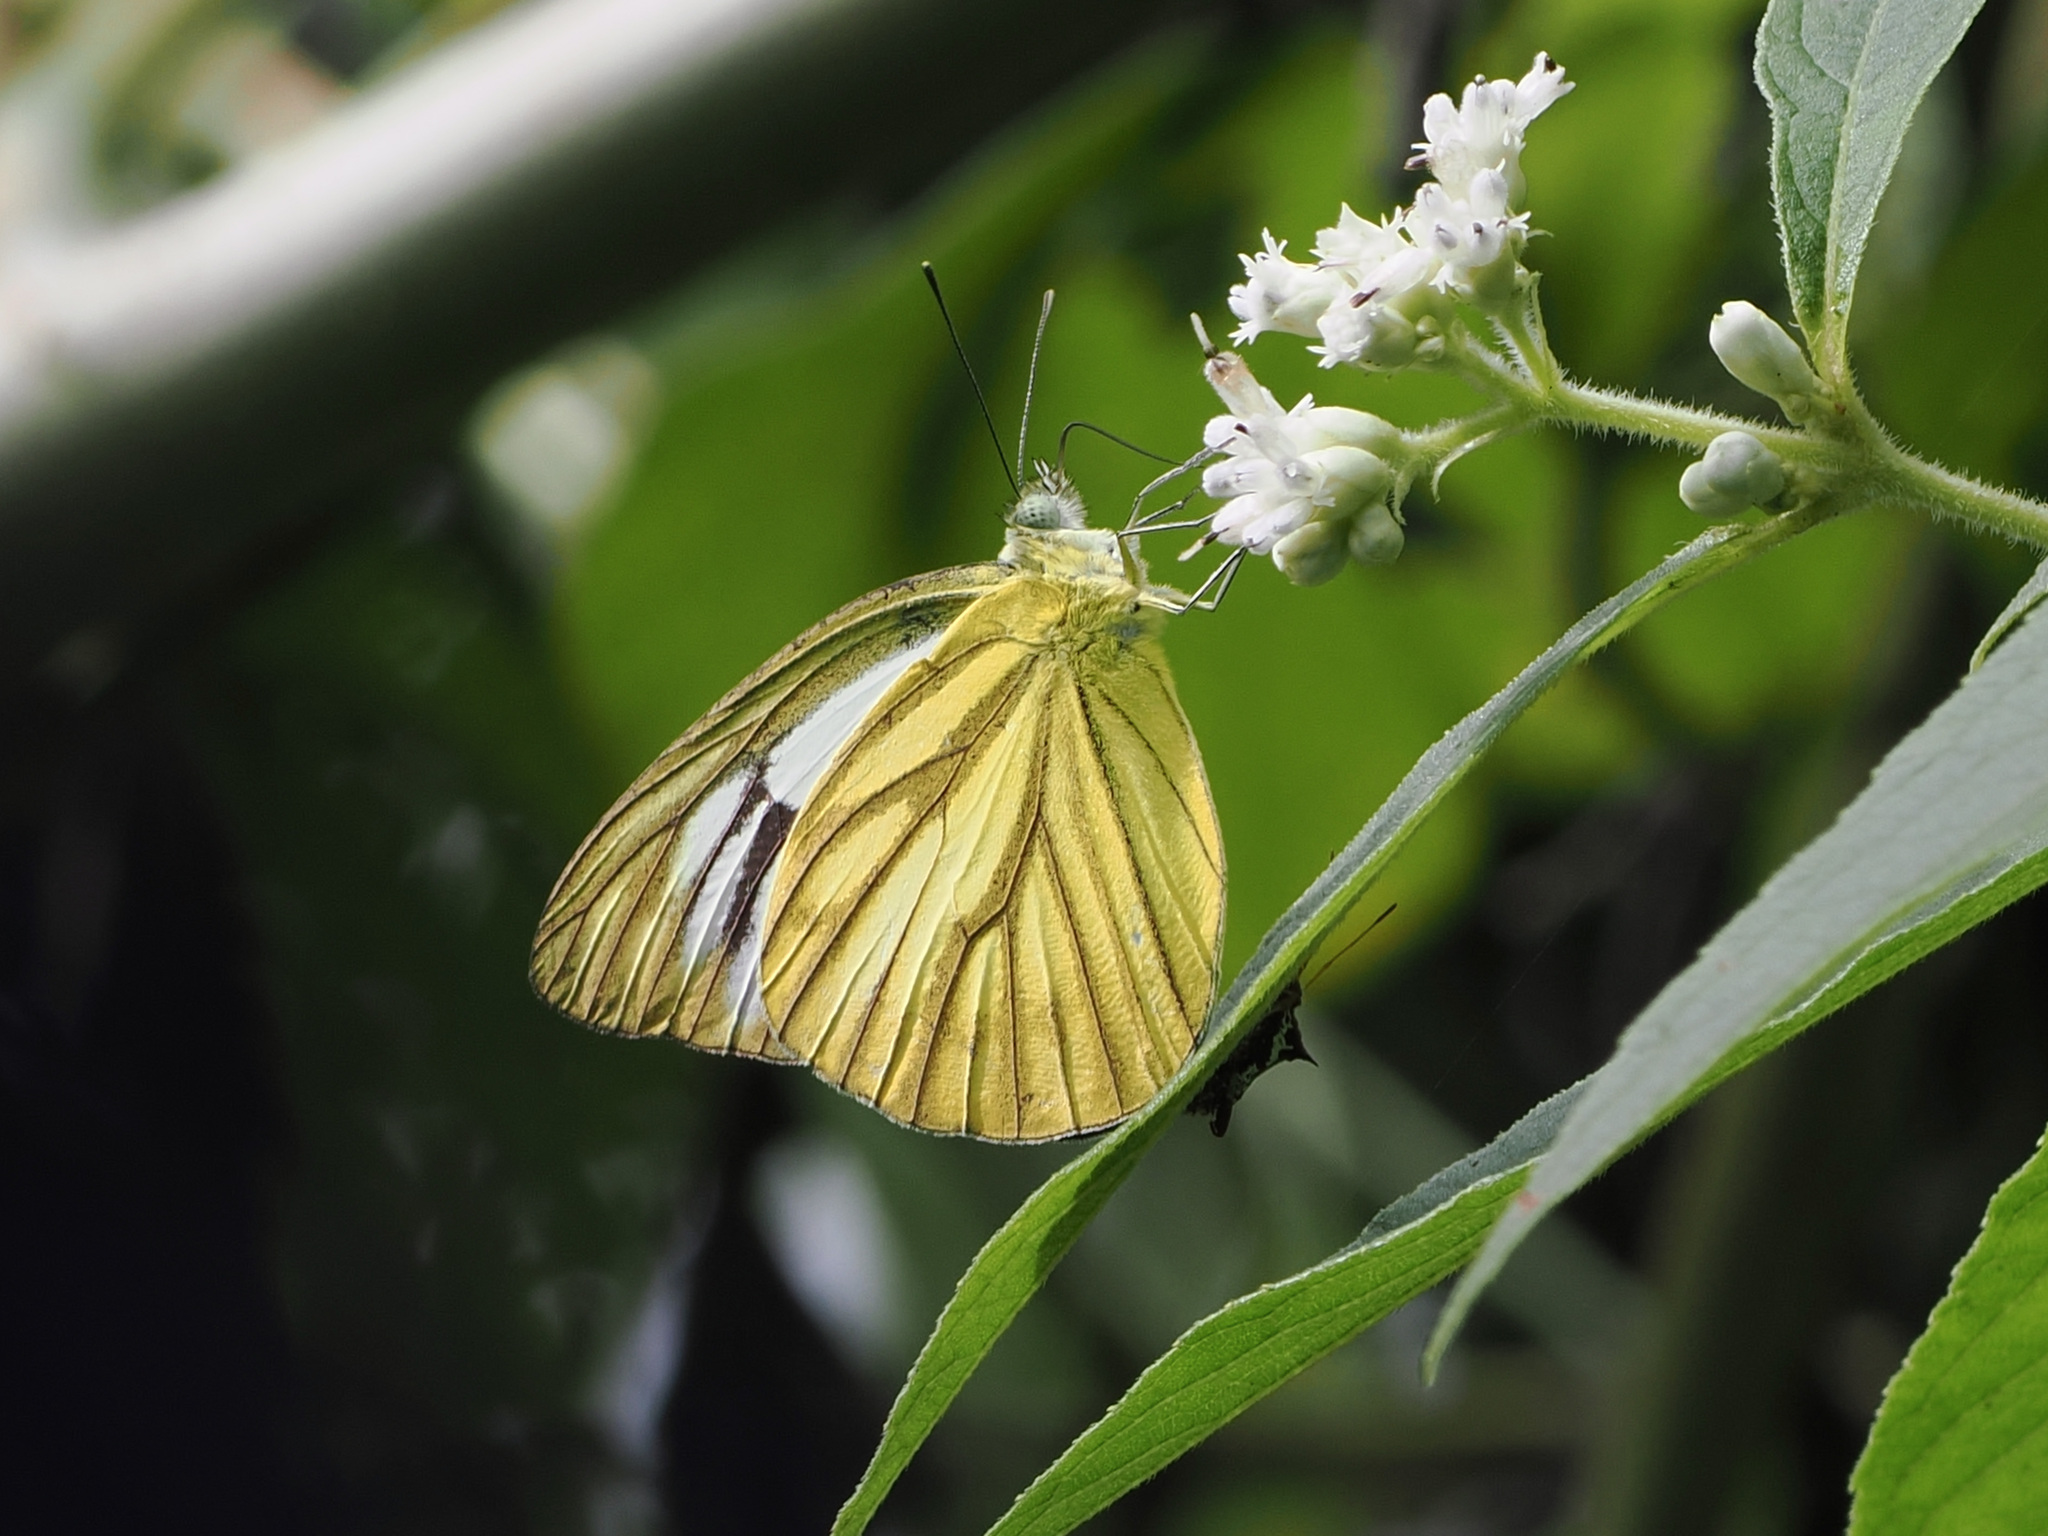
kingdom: Animalia
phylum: Arthropoda
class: Insecta
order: Lepidoptera
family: Pieridae
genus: Cepora
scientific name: Cepora nerissa
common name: Common gull
